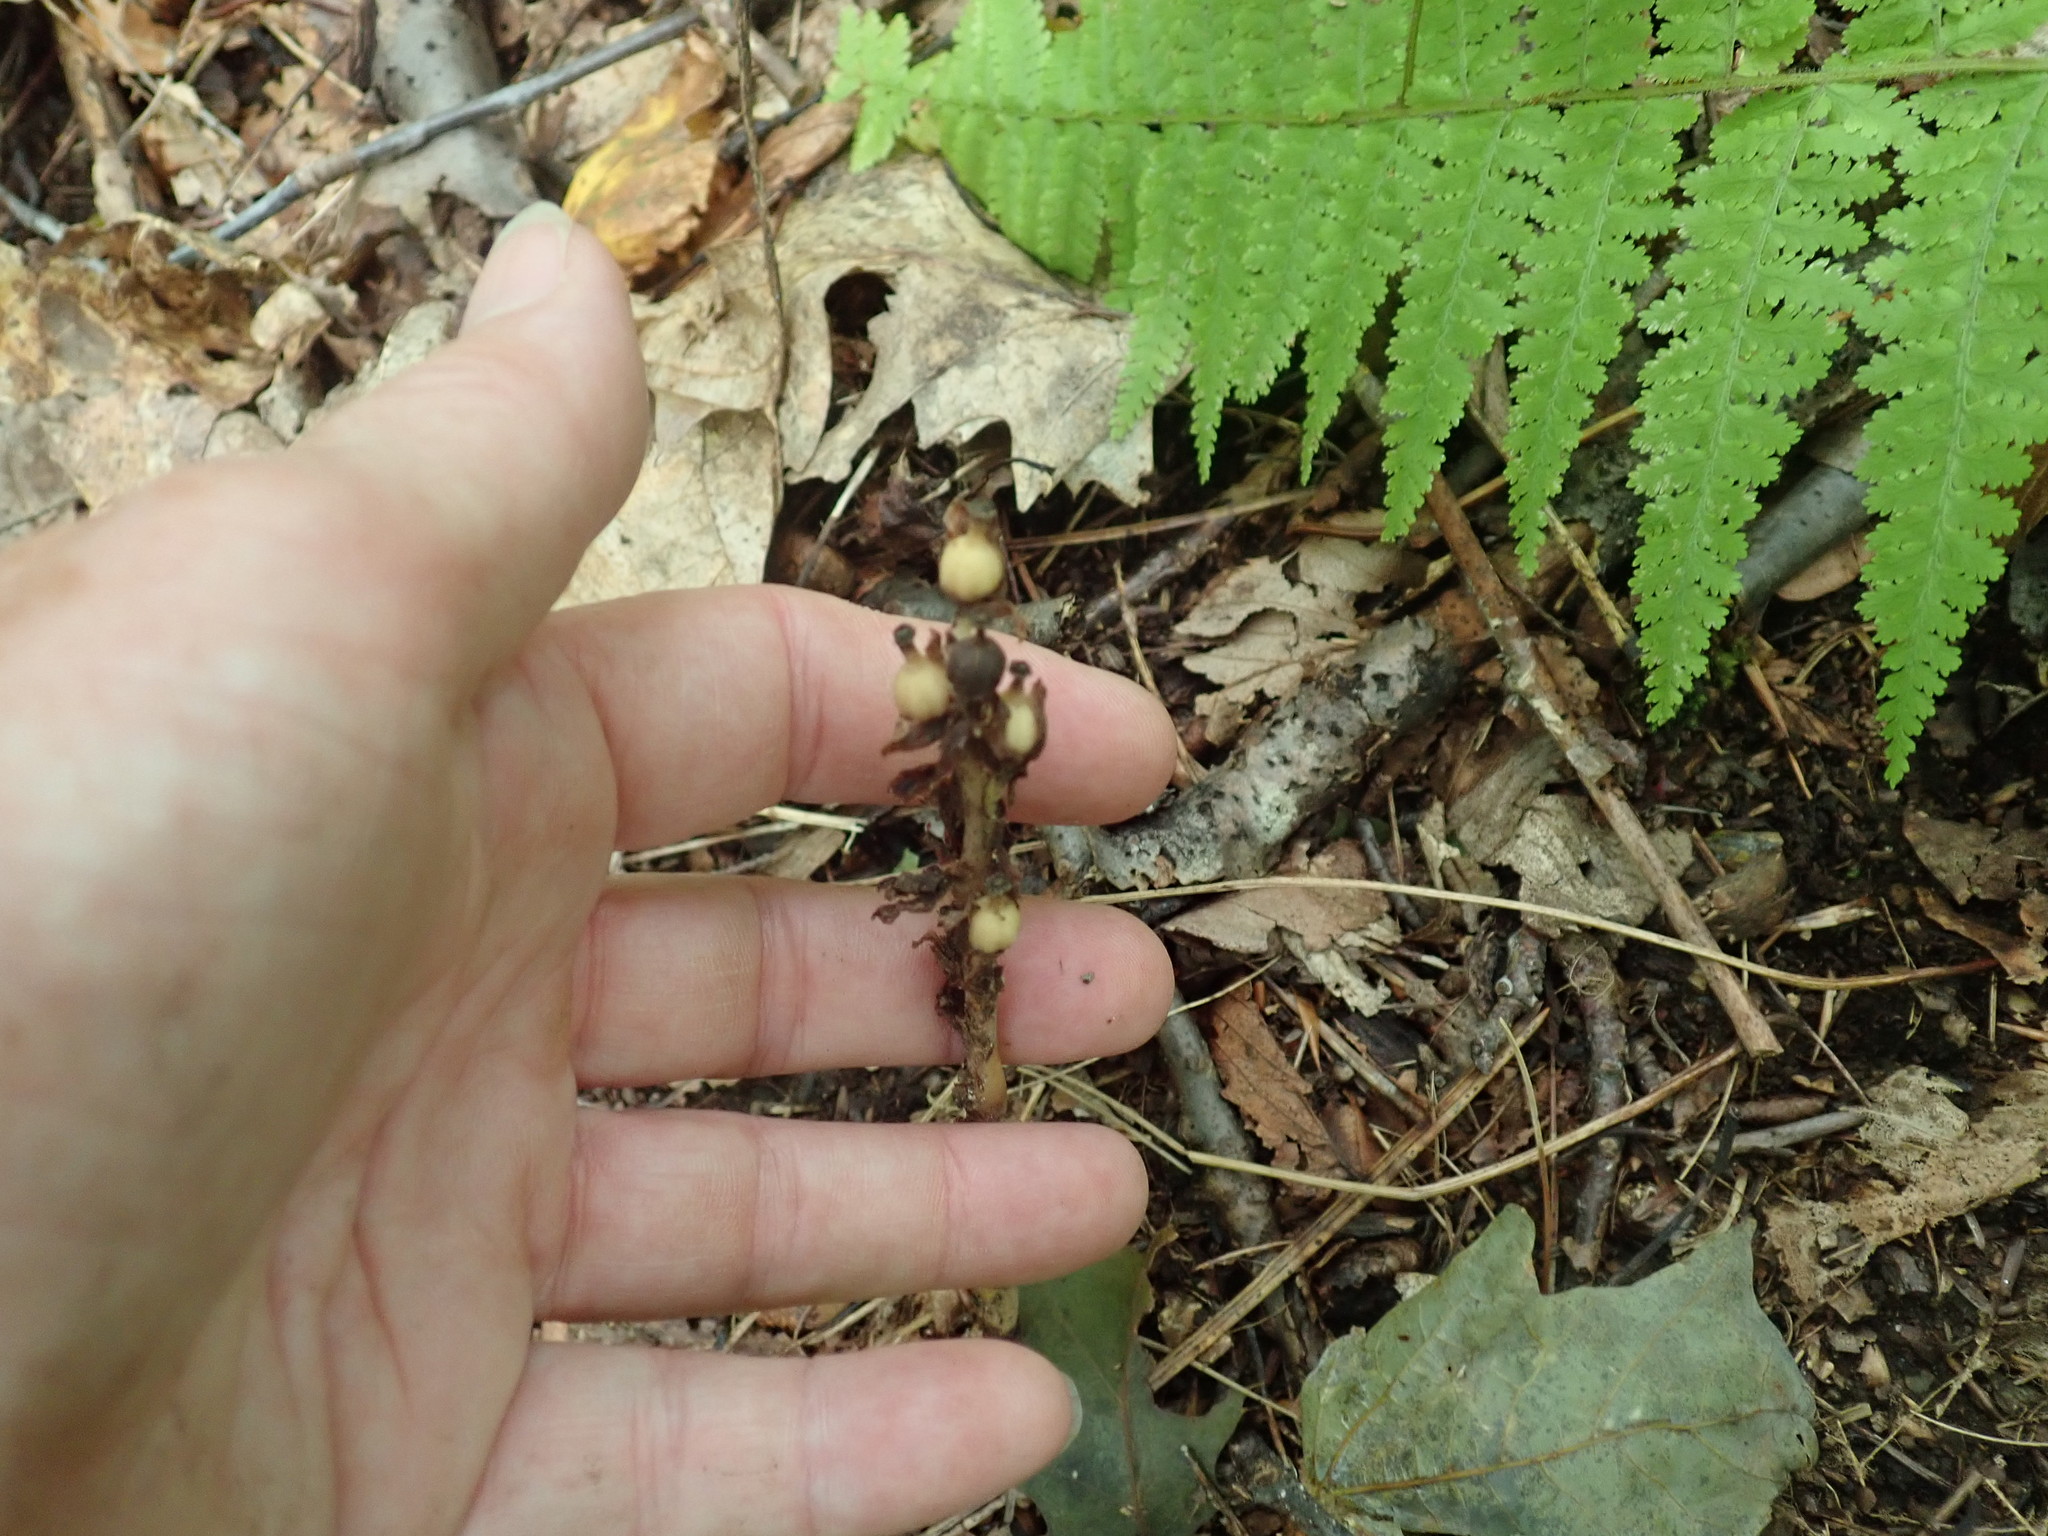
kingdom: Plantae
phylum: Tracheophyta
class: Magnoliopsida
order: Ericales
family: Ericaceae
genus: Hypopitys
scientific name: Hypopitys monotropa
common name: Yellow bird's-nest
